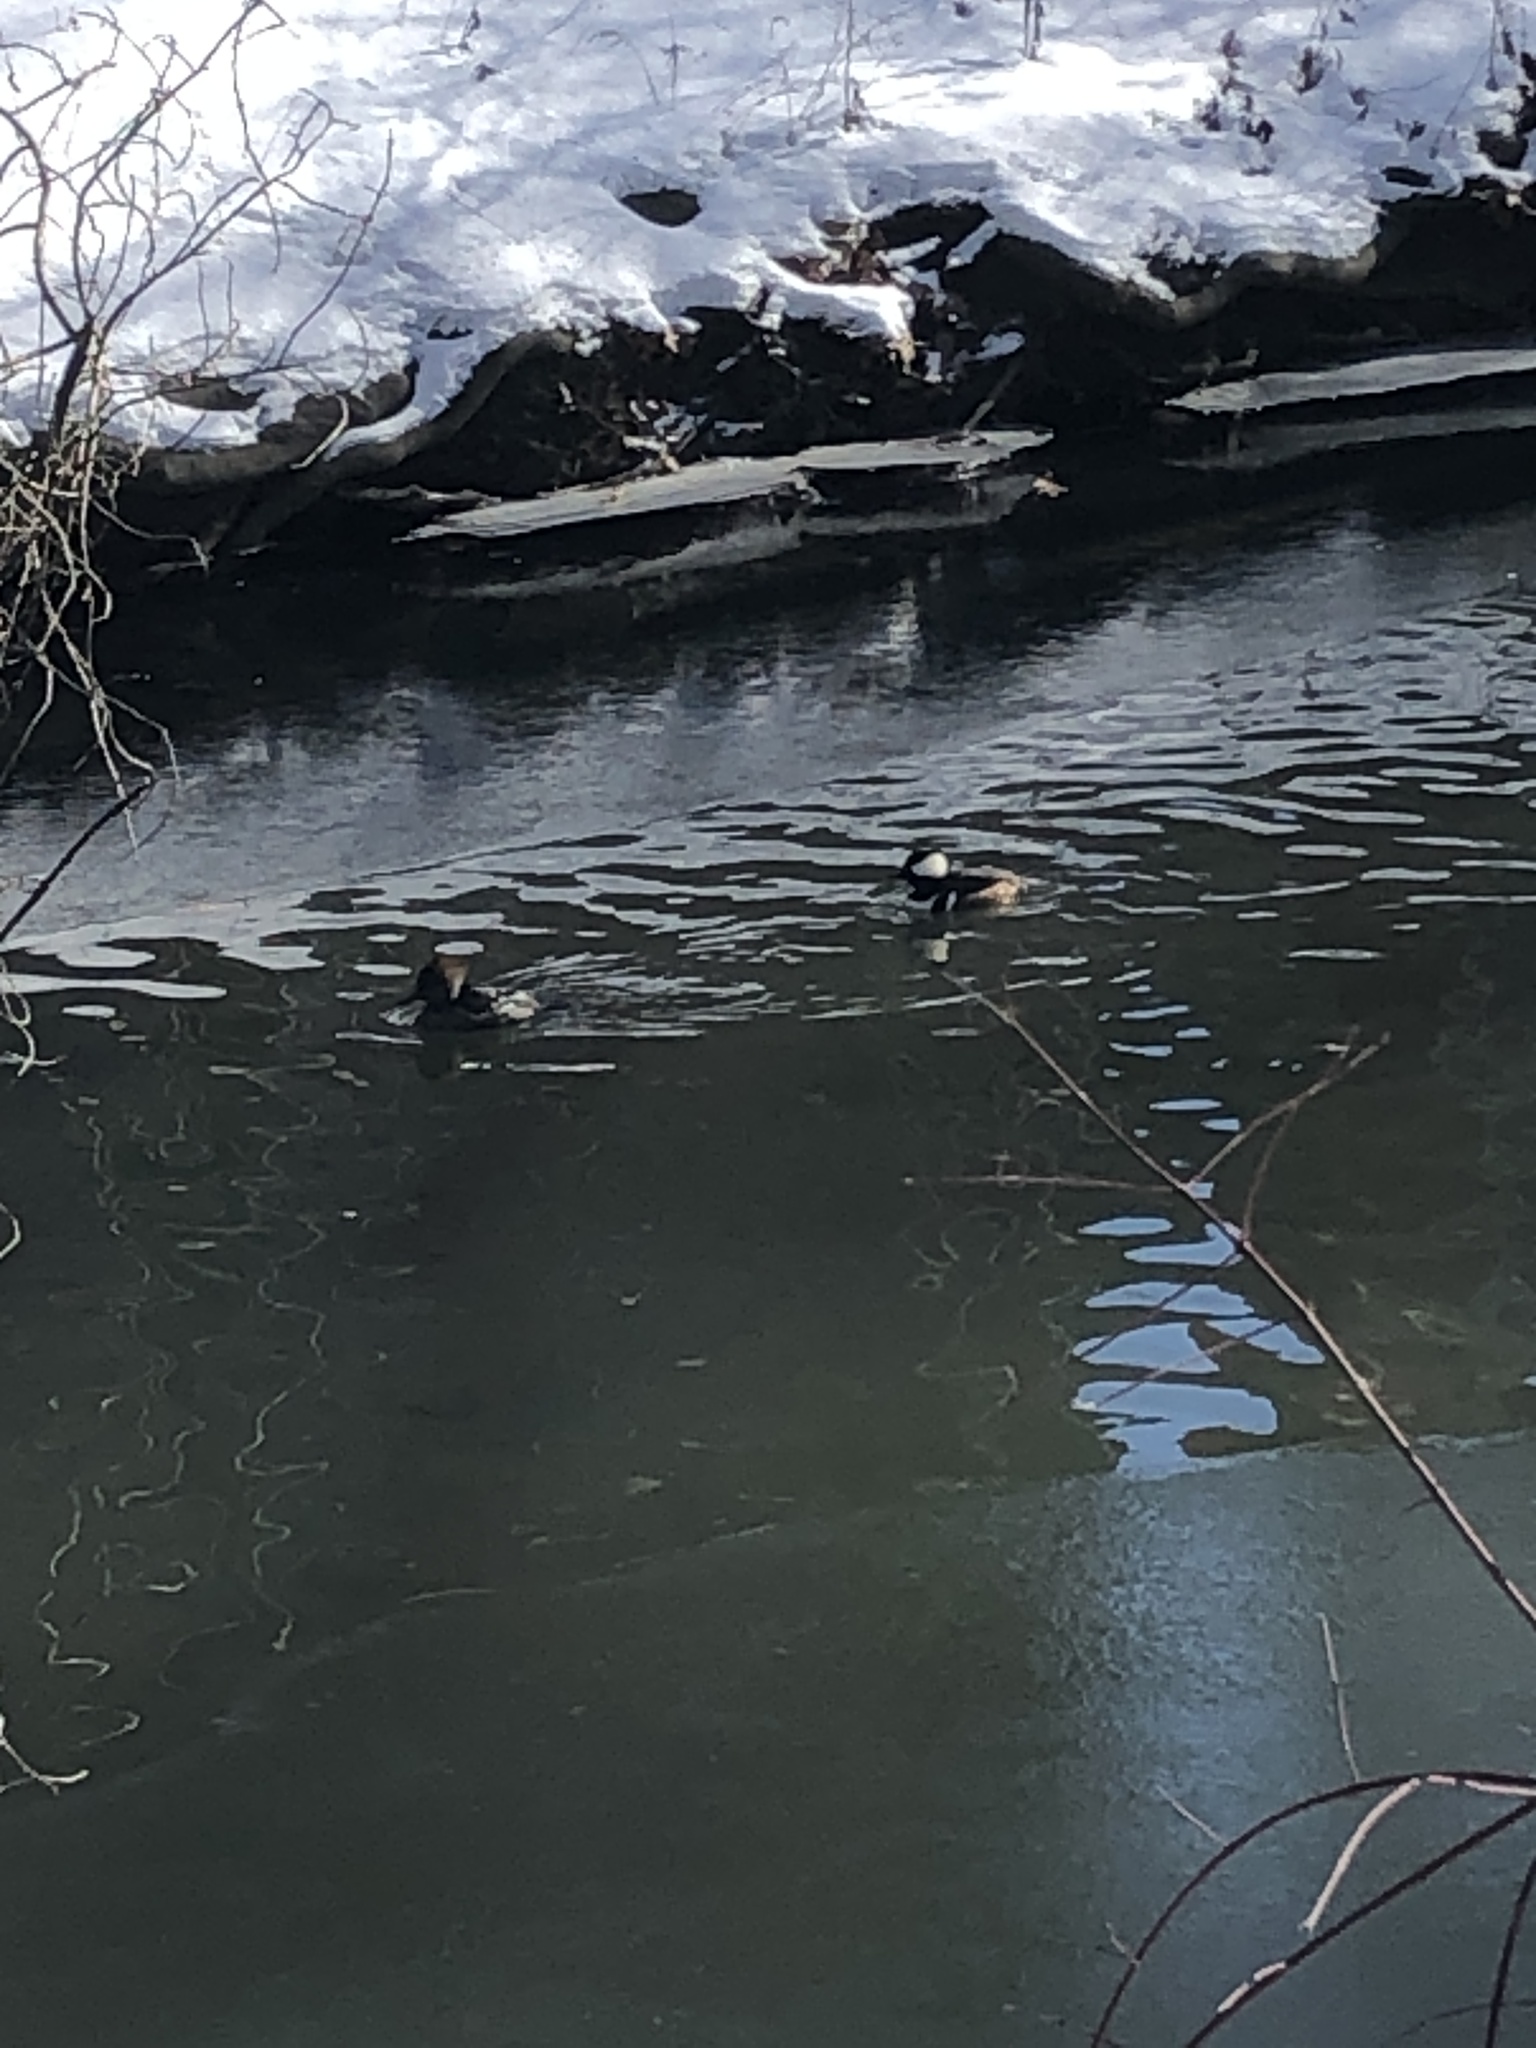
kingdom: Animalia
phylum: Chordata
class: Aves
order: Anseriformes
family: Anatidae
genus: Lophodytes
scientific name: Lophodytes cucullatus
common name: Hooded merganser
